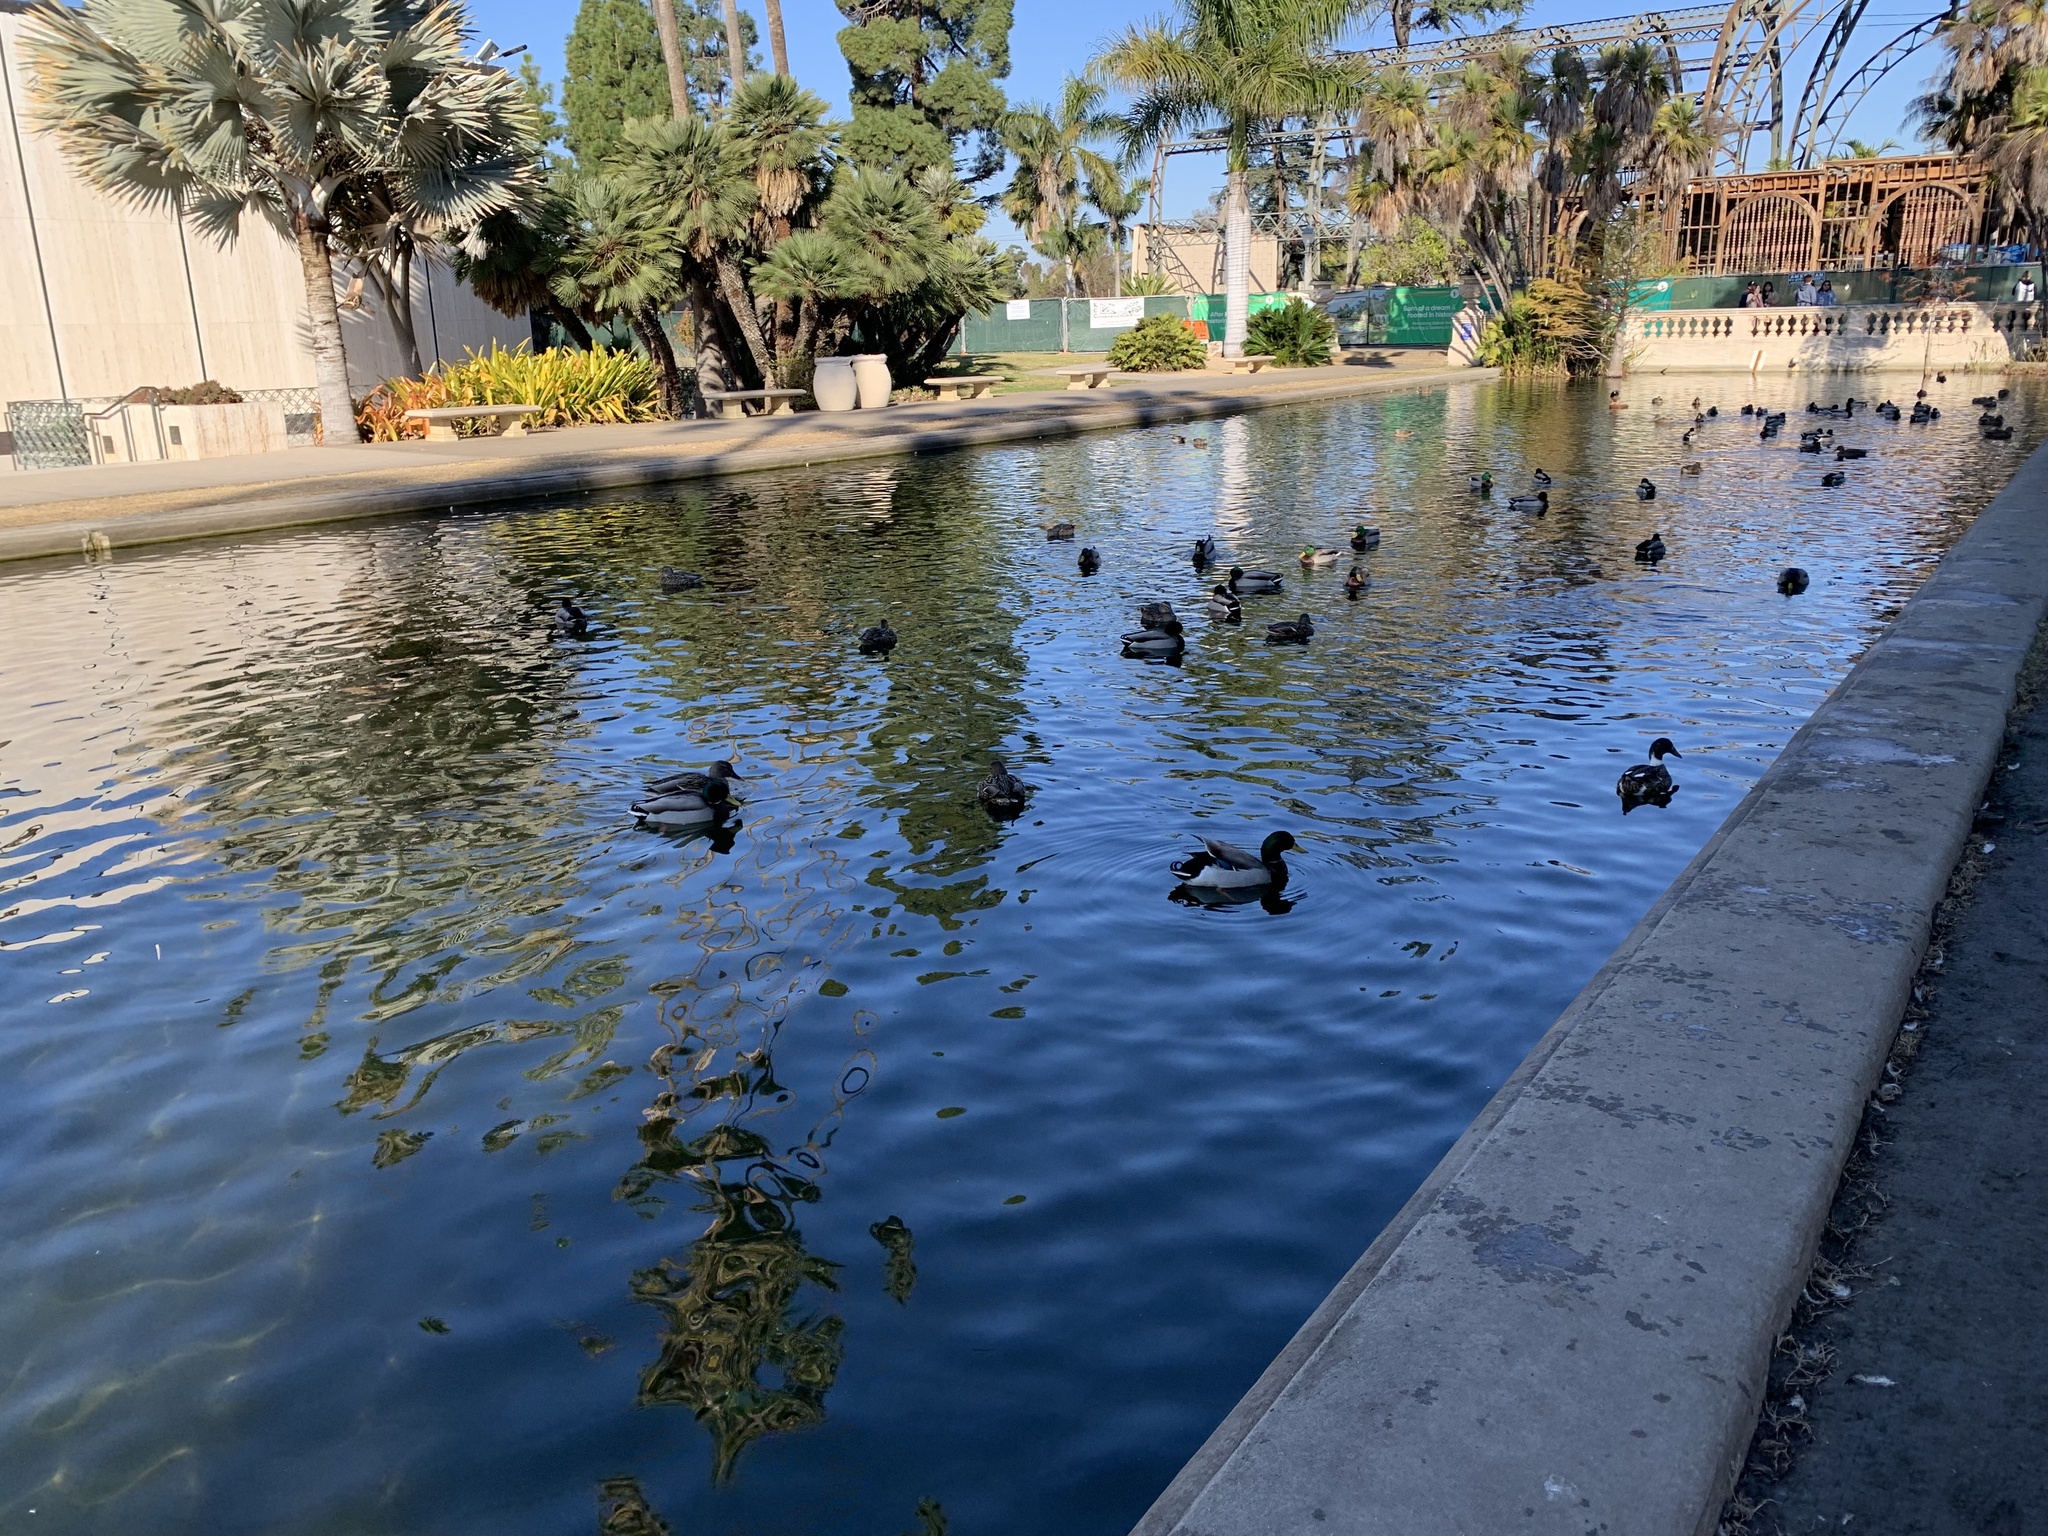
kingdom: Animalia
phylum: Chordata
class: Aves
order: Anseriformes
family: Anatidae
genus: Anas
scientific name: Anas platyrhynchos
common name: Mallard
